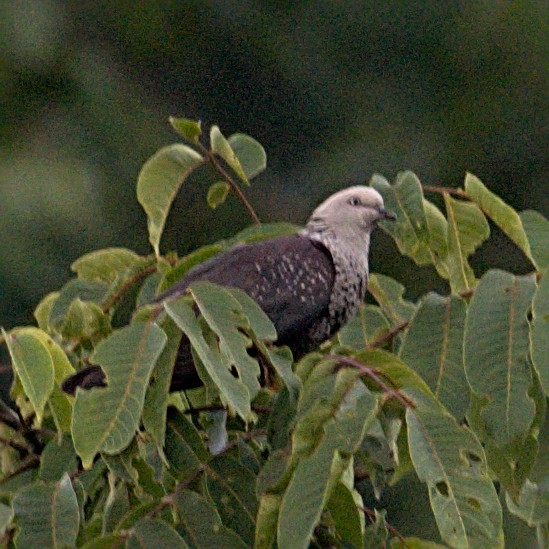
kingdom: Animalia
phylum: Chordata
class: Aves
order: Columbiformes
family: Columbidae
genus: Columba
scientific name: Columba hodgsonii
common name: Speckled wood pigeon
